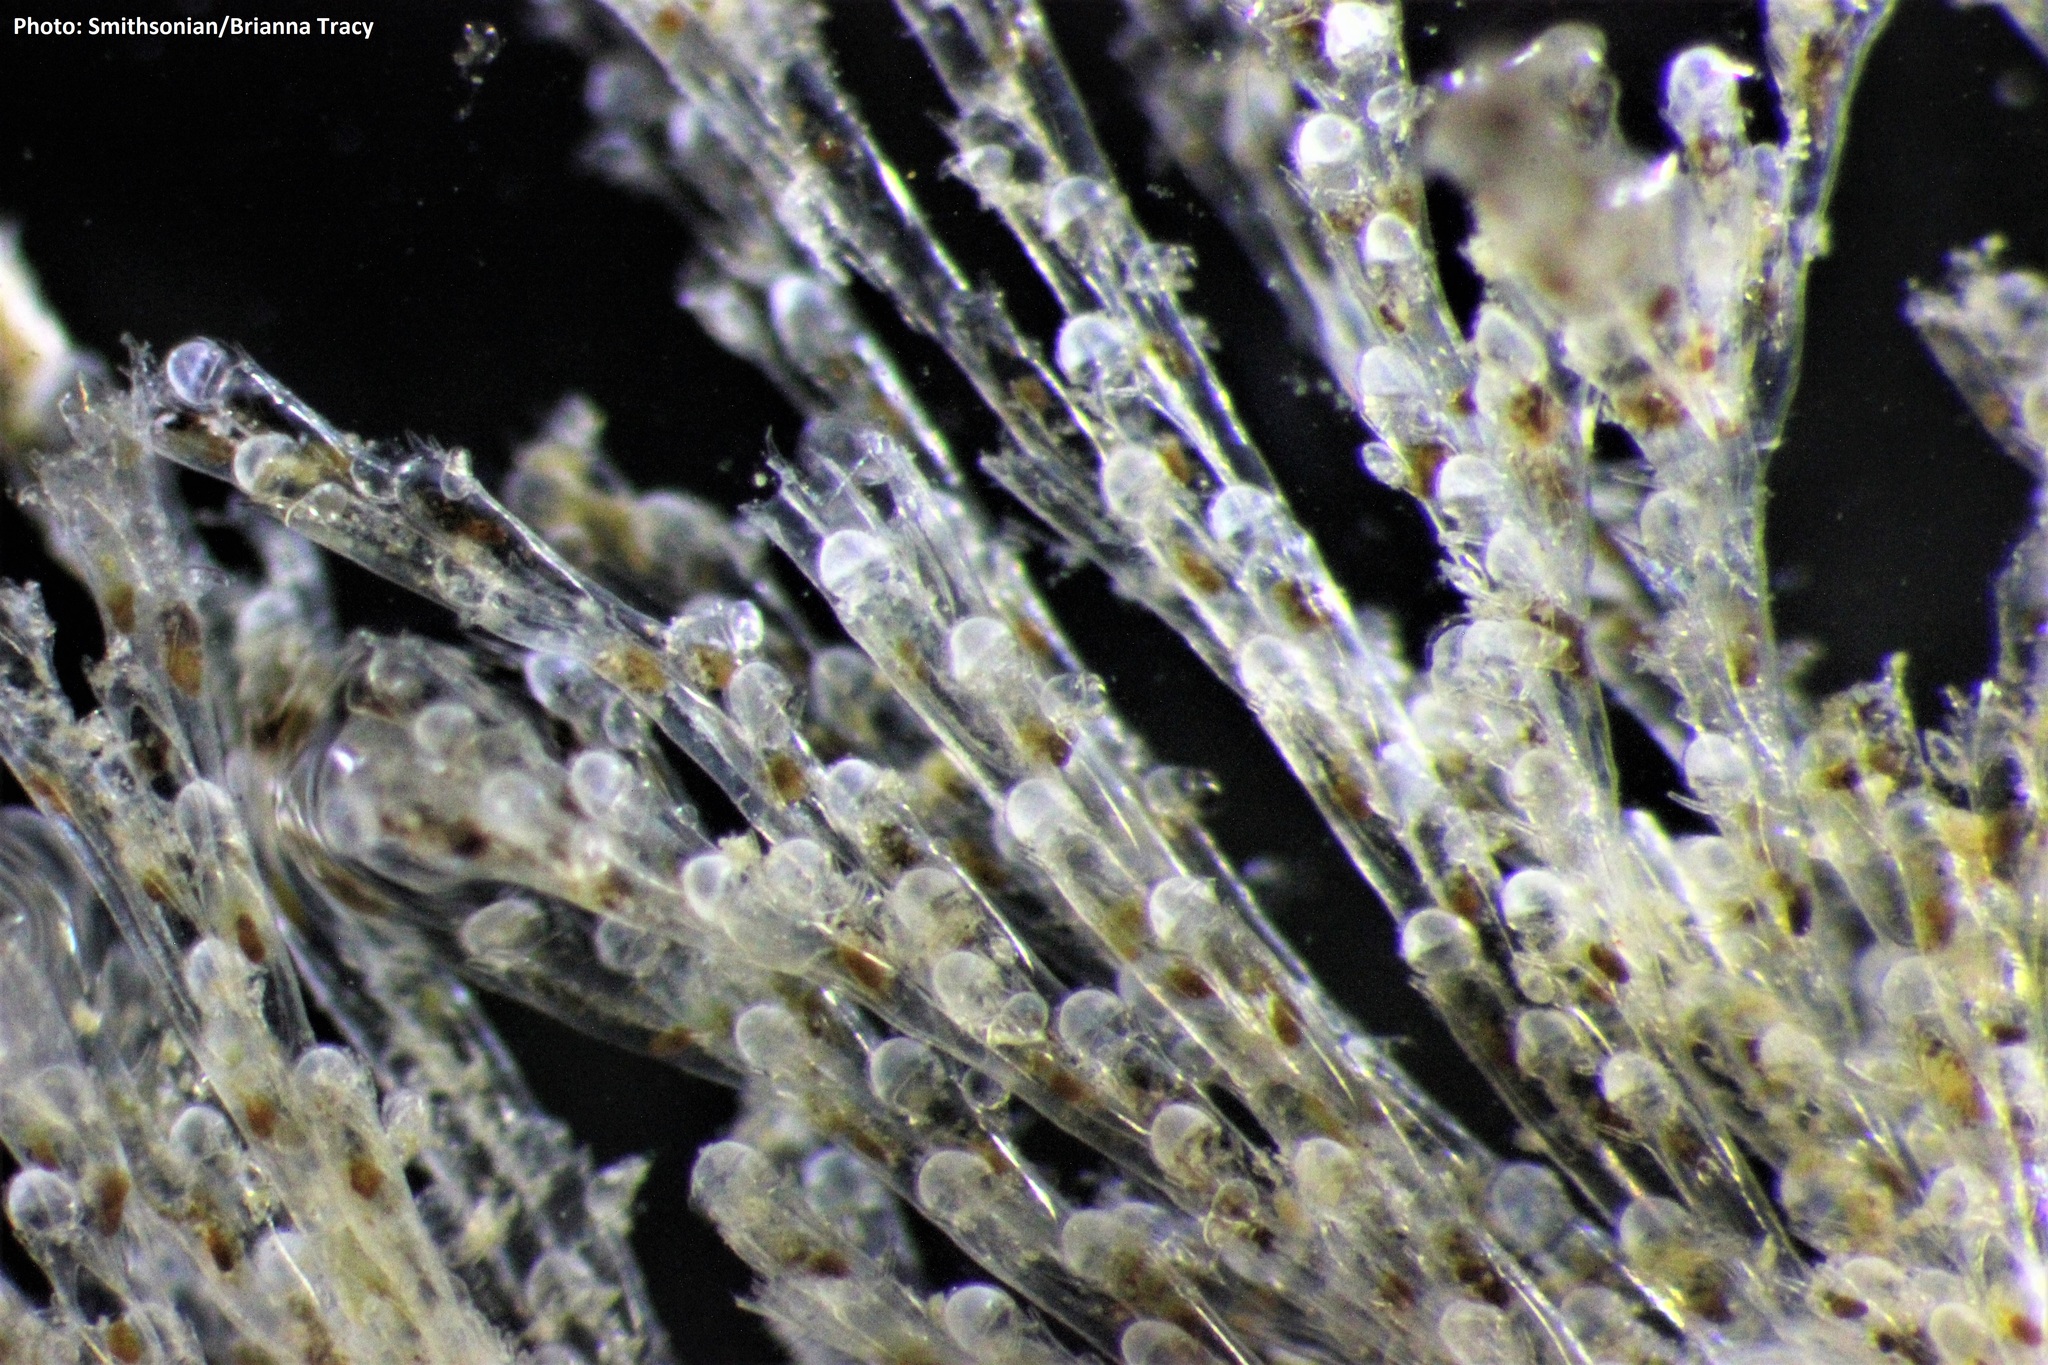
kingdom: Animalia
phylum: Bryozoa
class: Gymnolaemata
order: Cheilostomatida
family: Bugulidae
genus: Bugulina
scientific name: Bugulina stolonifera
